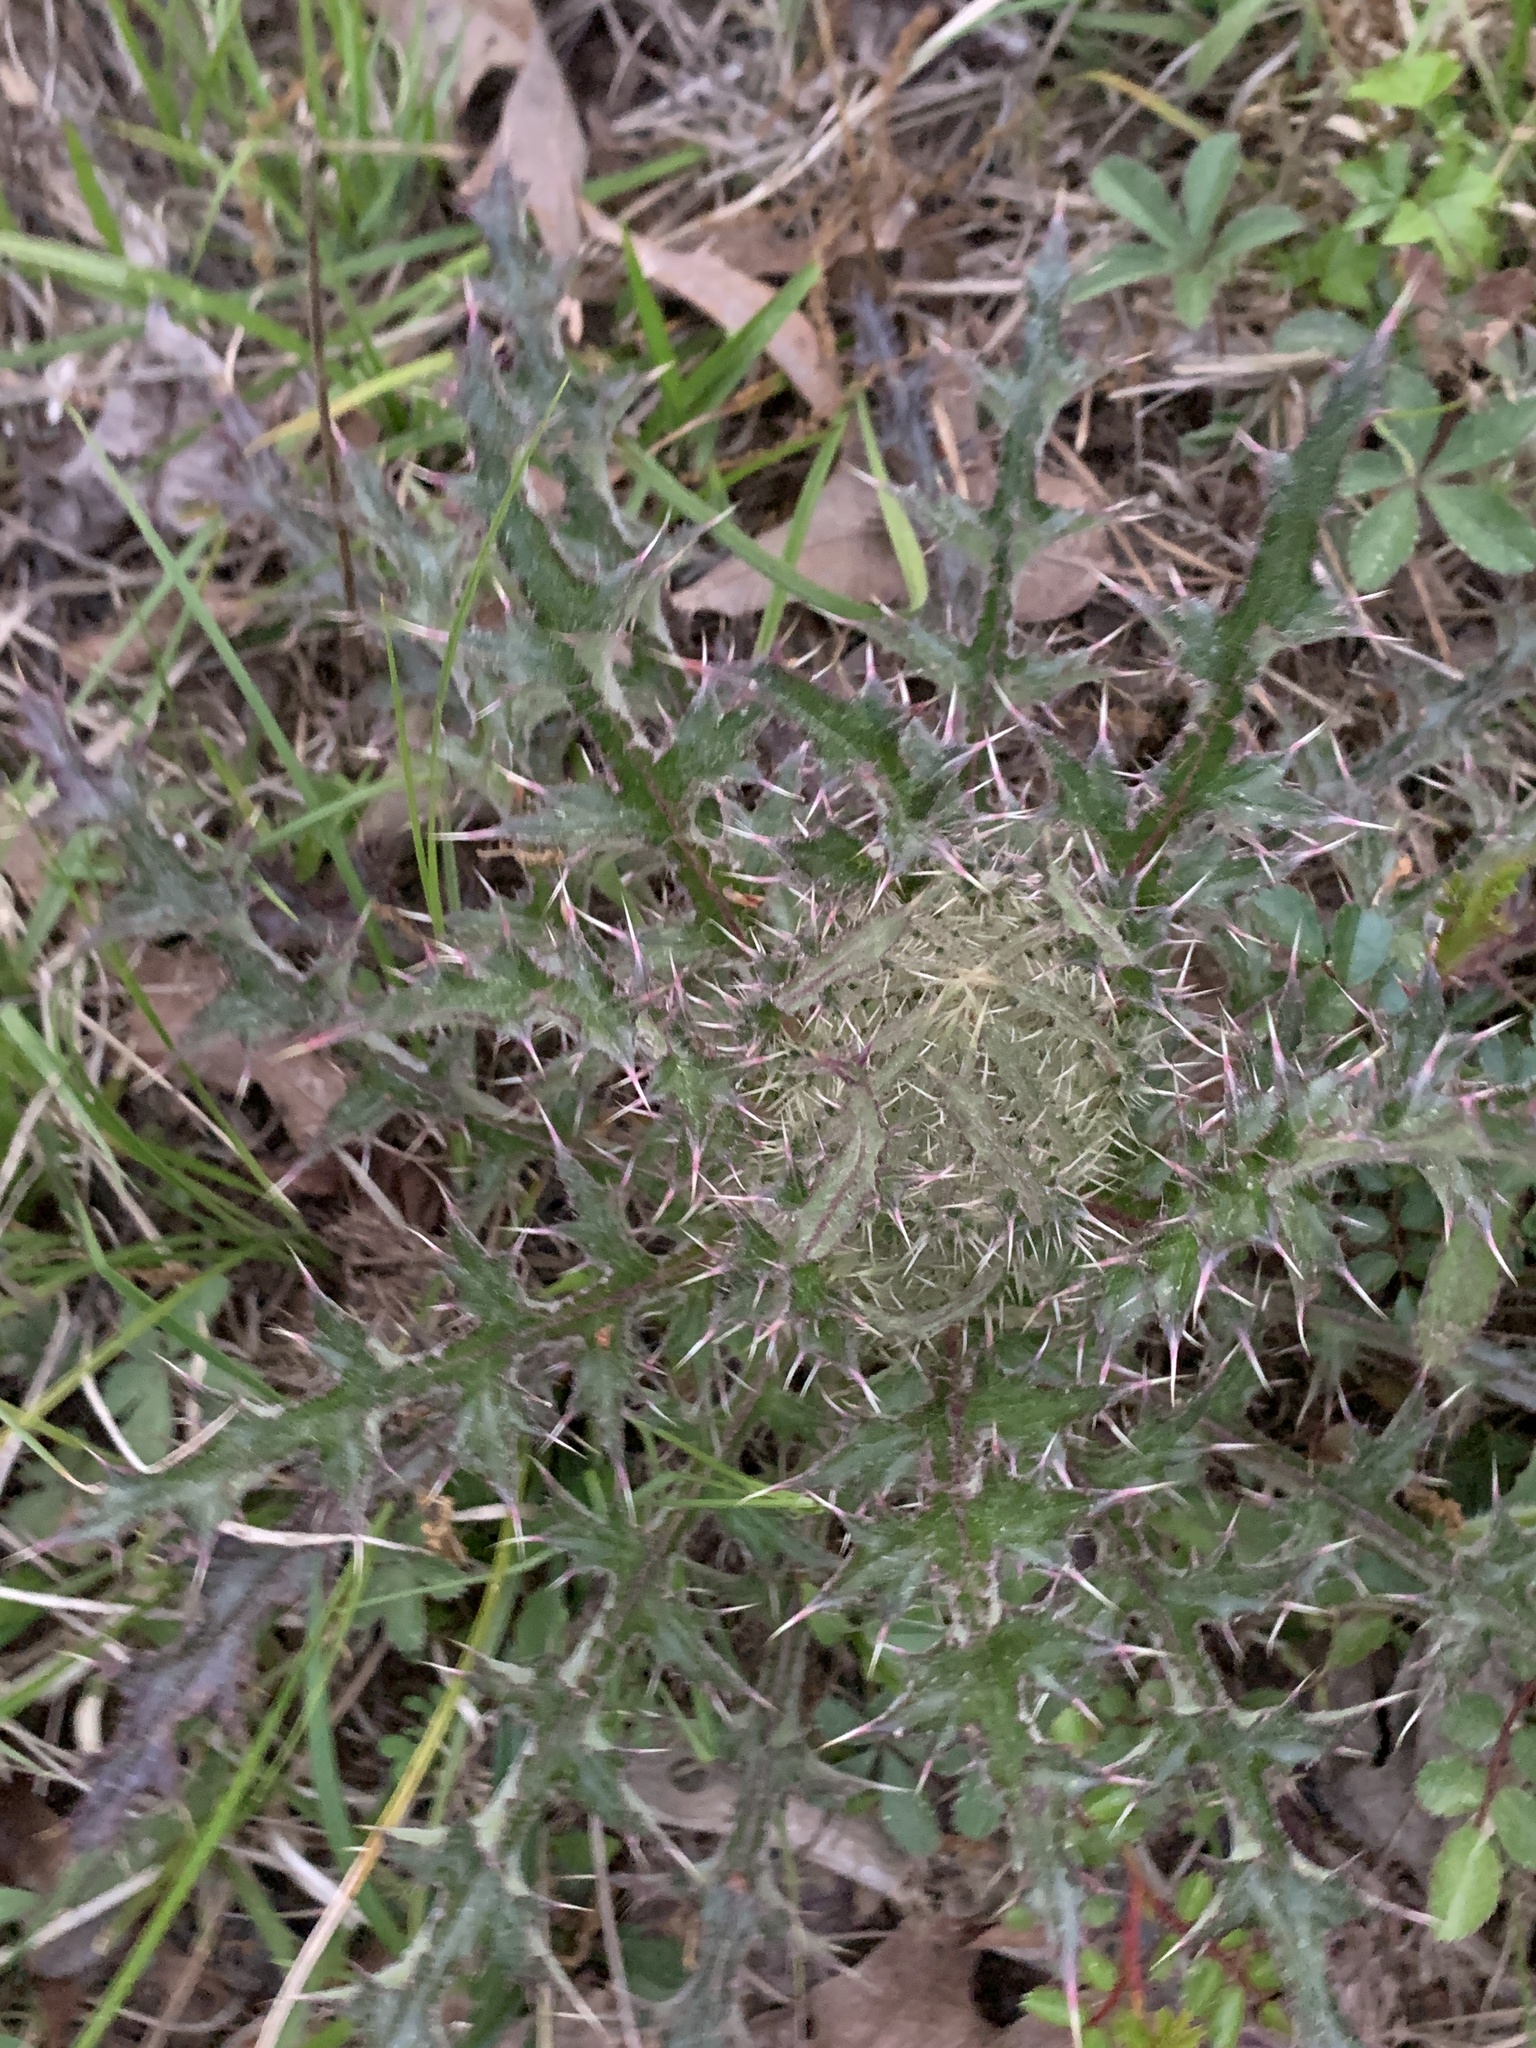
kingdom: Plantae
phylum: Tracheophyta
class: Magnoliopsida
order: Asterales
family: Asteraceae
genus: Cirsium
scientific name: Cirsium horridulum
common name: Bristly thistle
